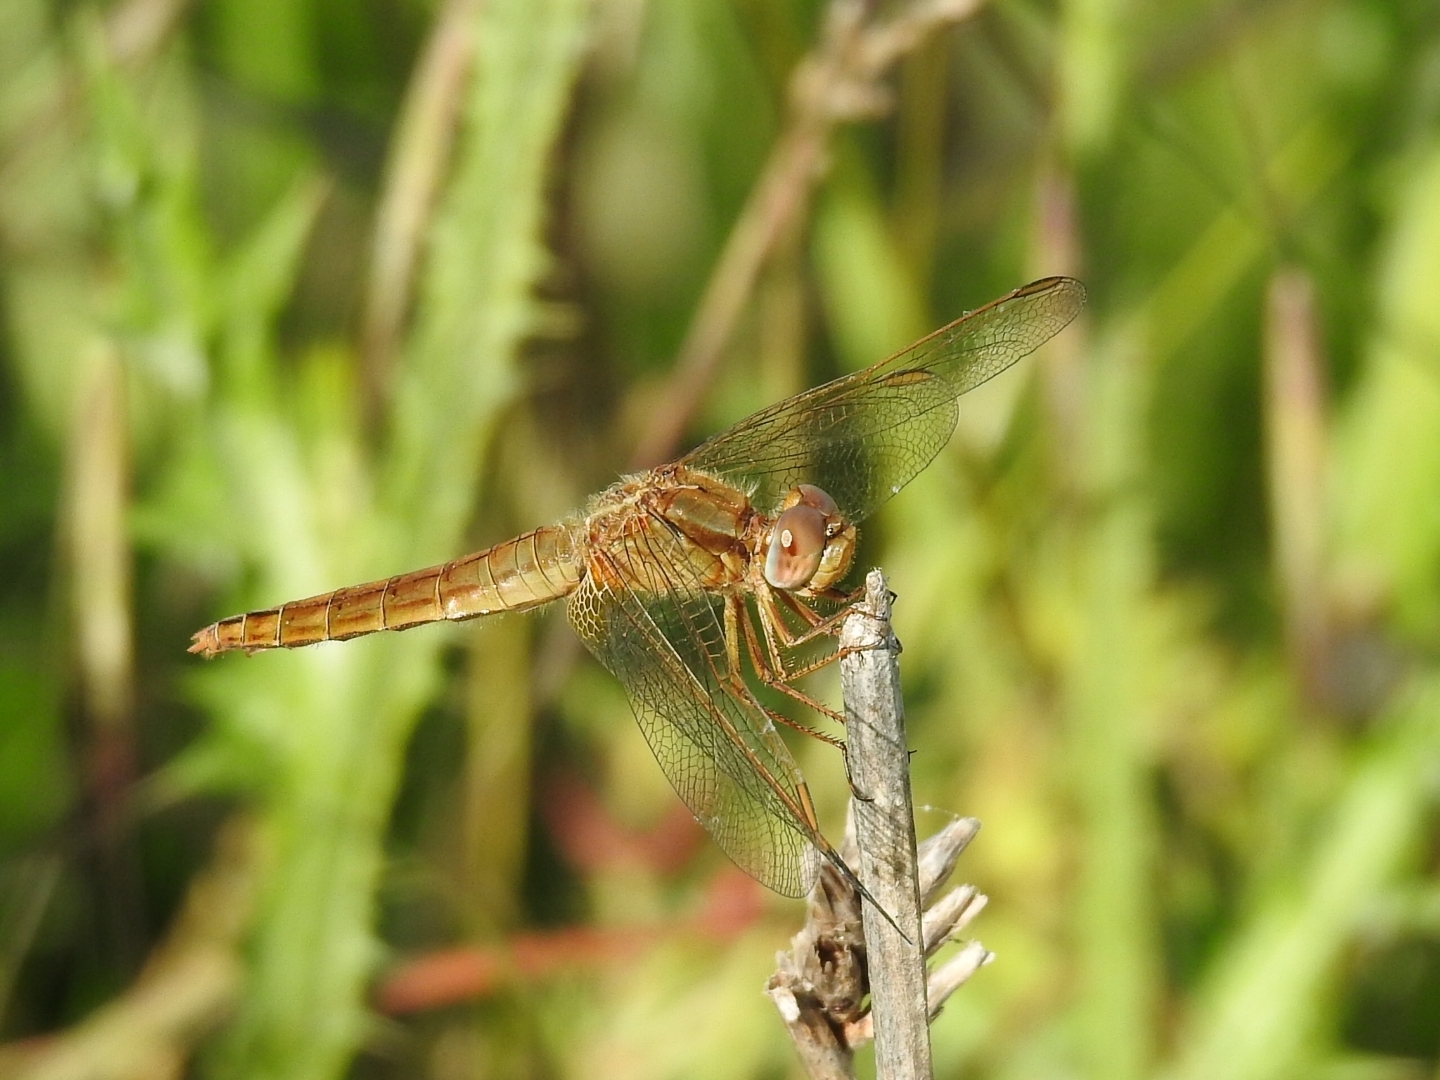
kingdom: Animalia
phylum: Arthropoda
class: Insecta
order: Odonata
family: Libellulidae
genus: Crocothemis
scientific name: Crocothemis erythraea
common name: Scarlet dragonfly
